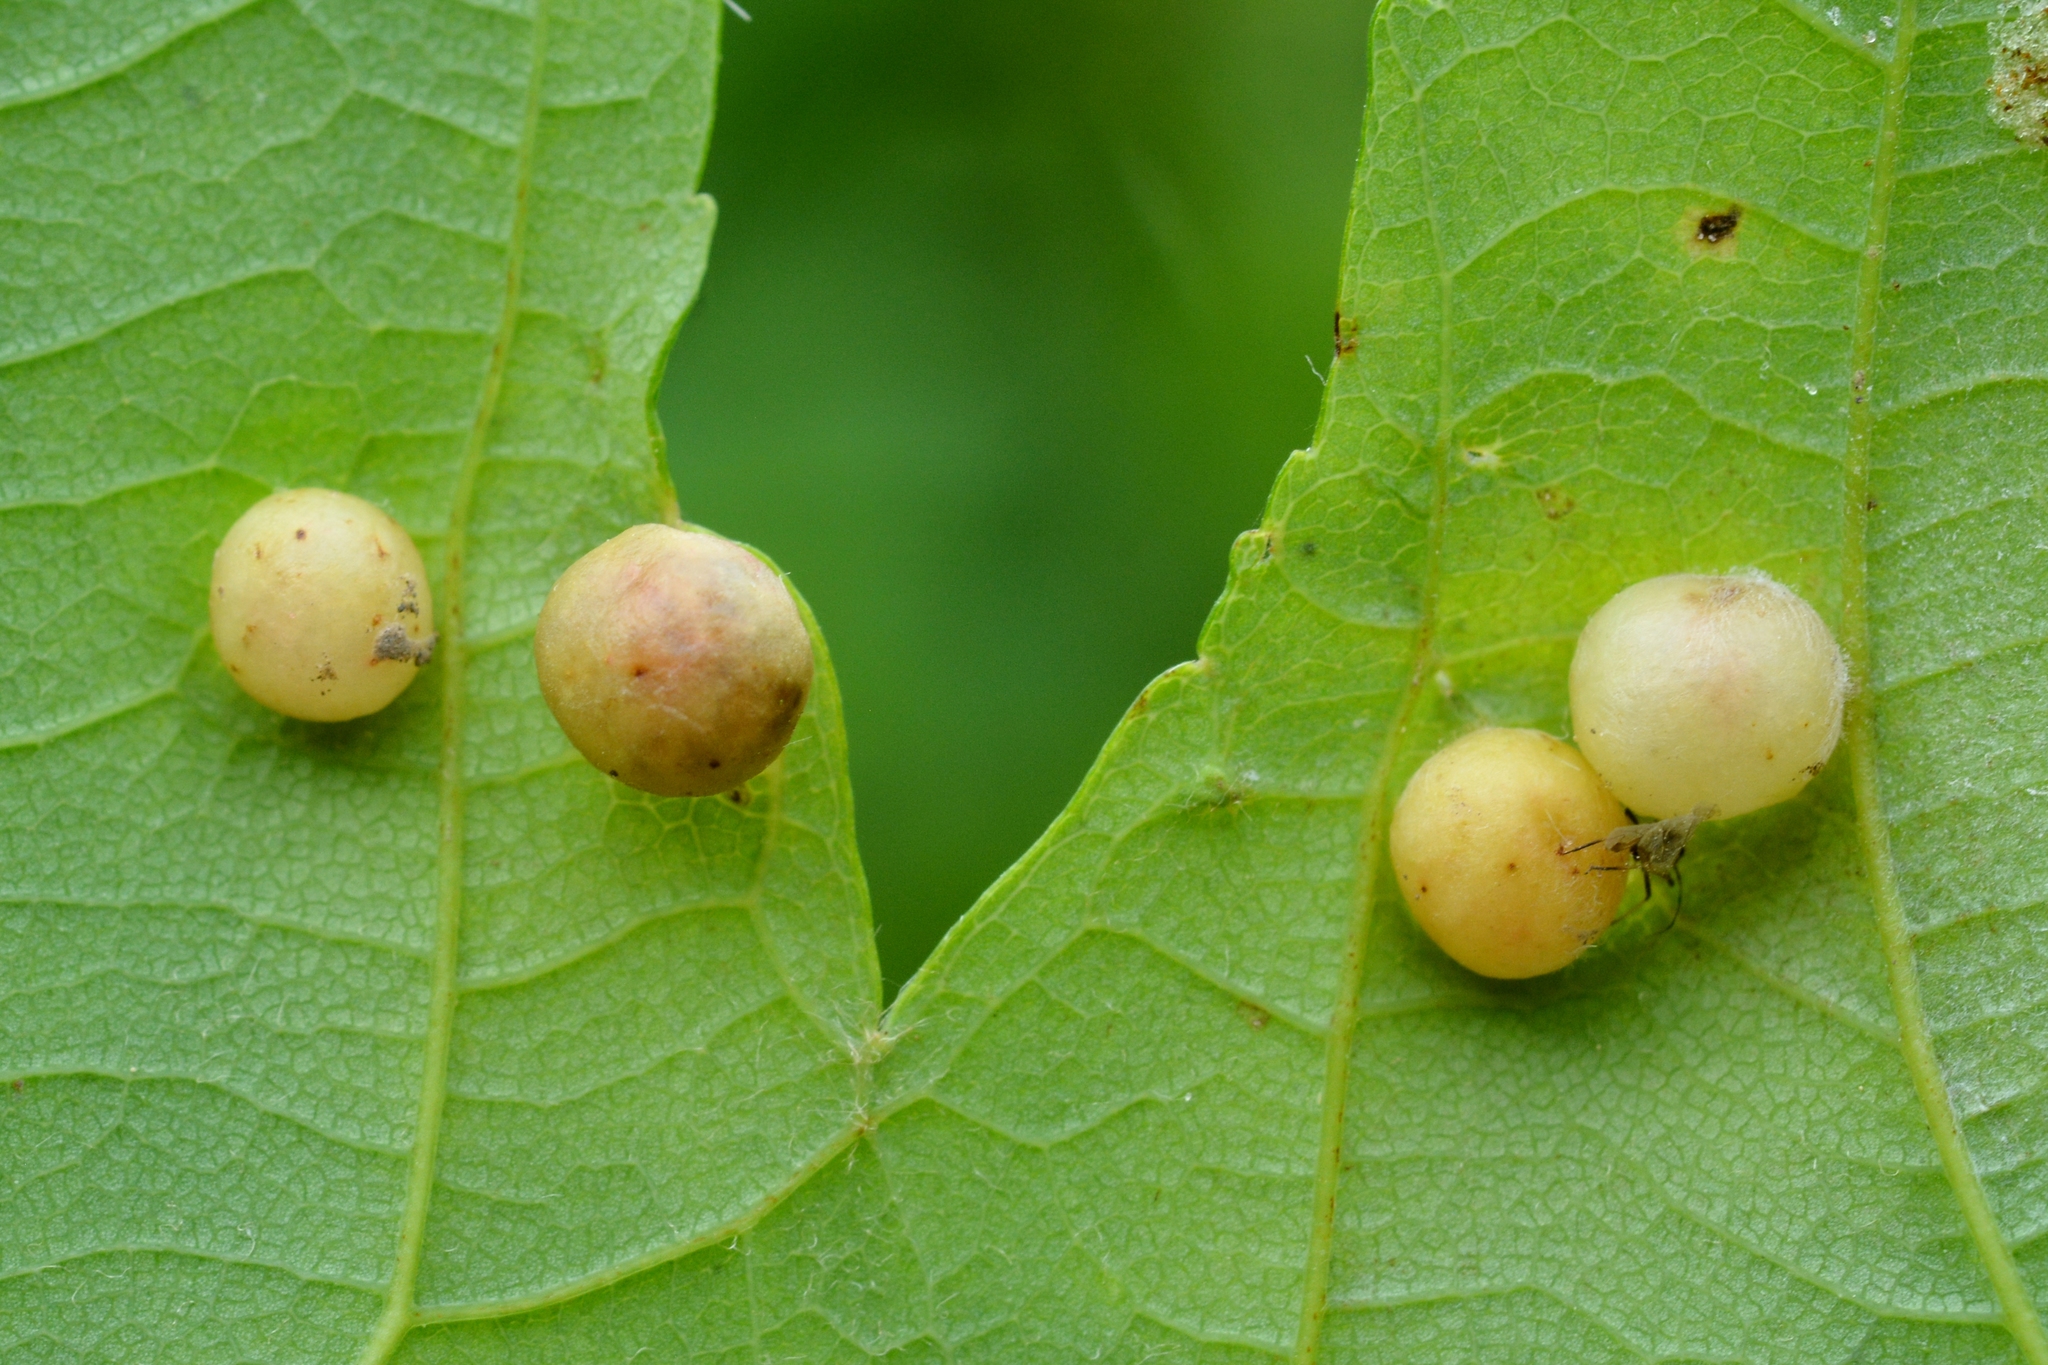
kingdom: Animalia
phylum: Arthropoda
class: Insecta
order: Hymenoptera
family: Cynipidae
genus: Pediaspis
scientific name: Pediaspis aceris
